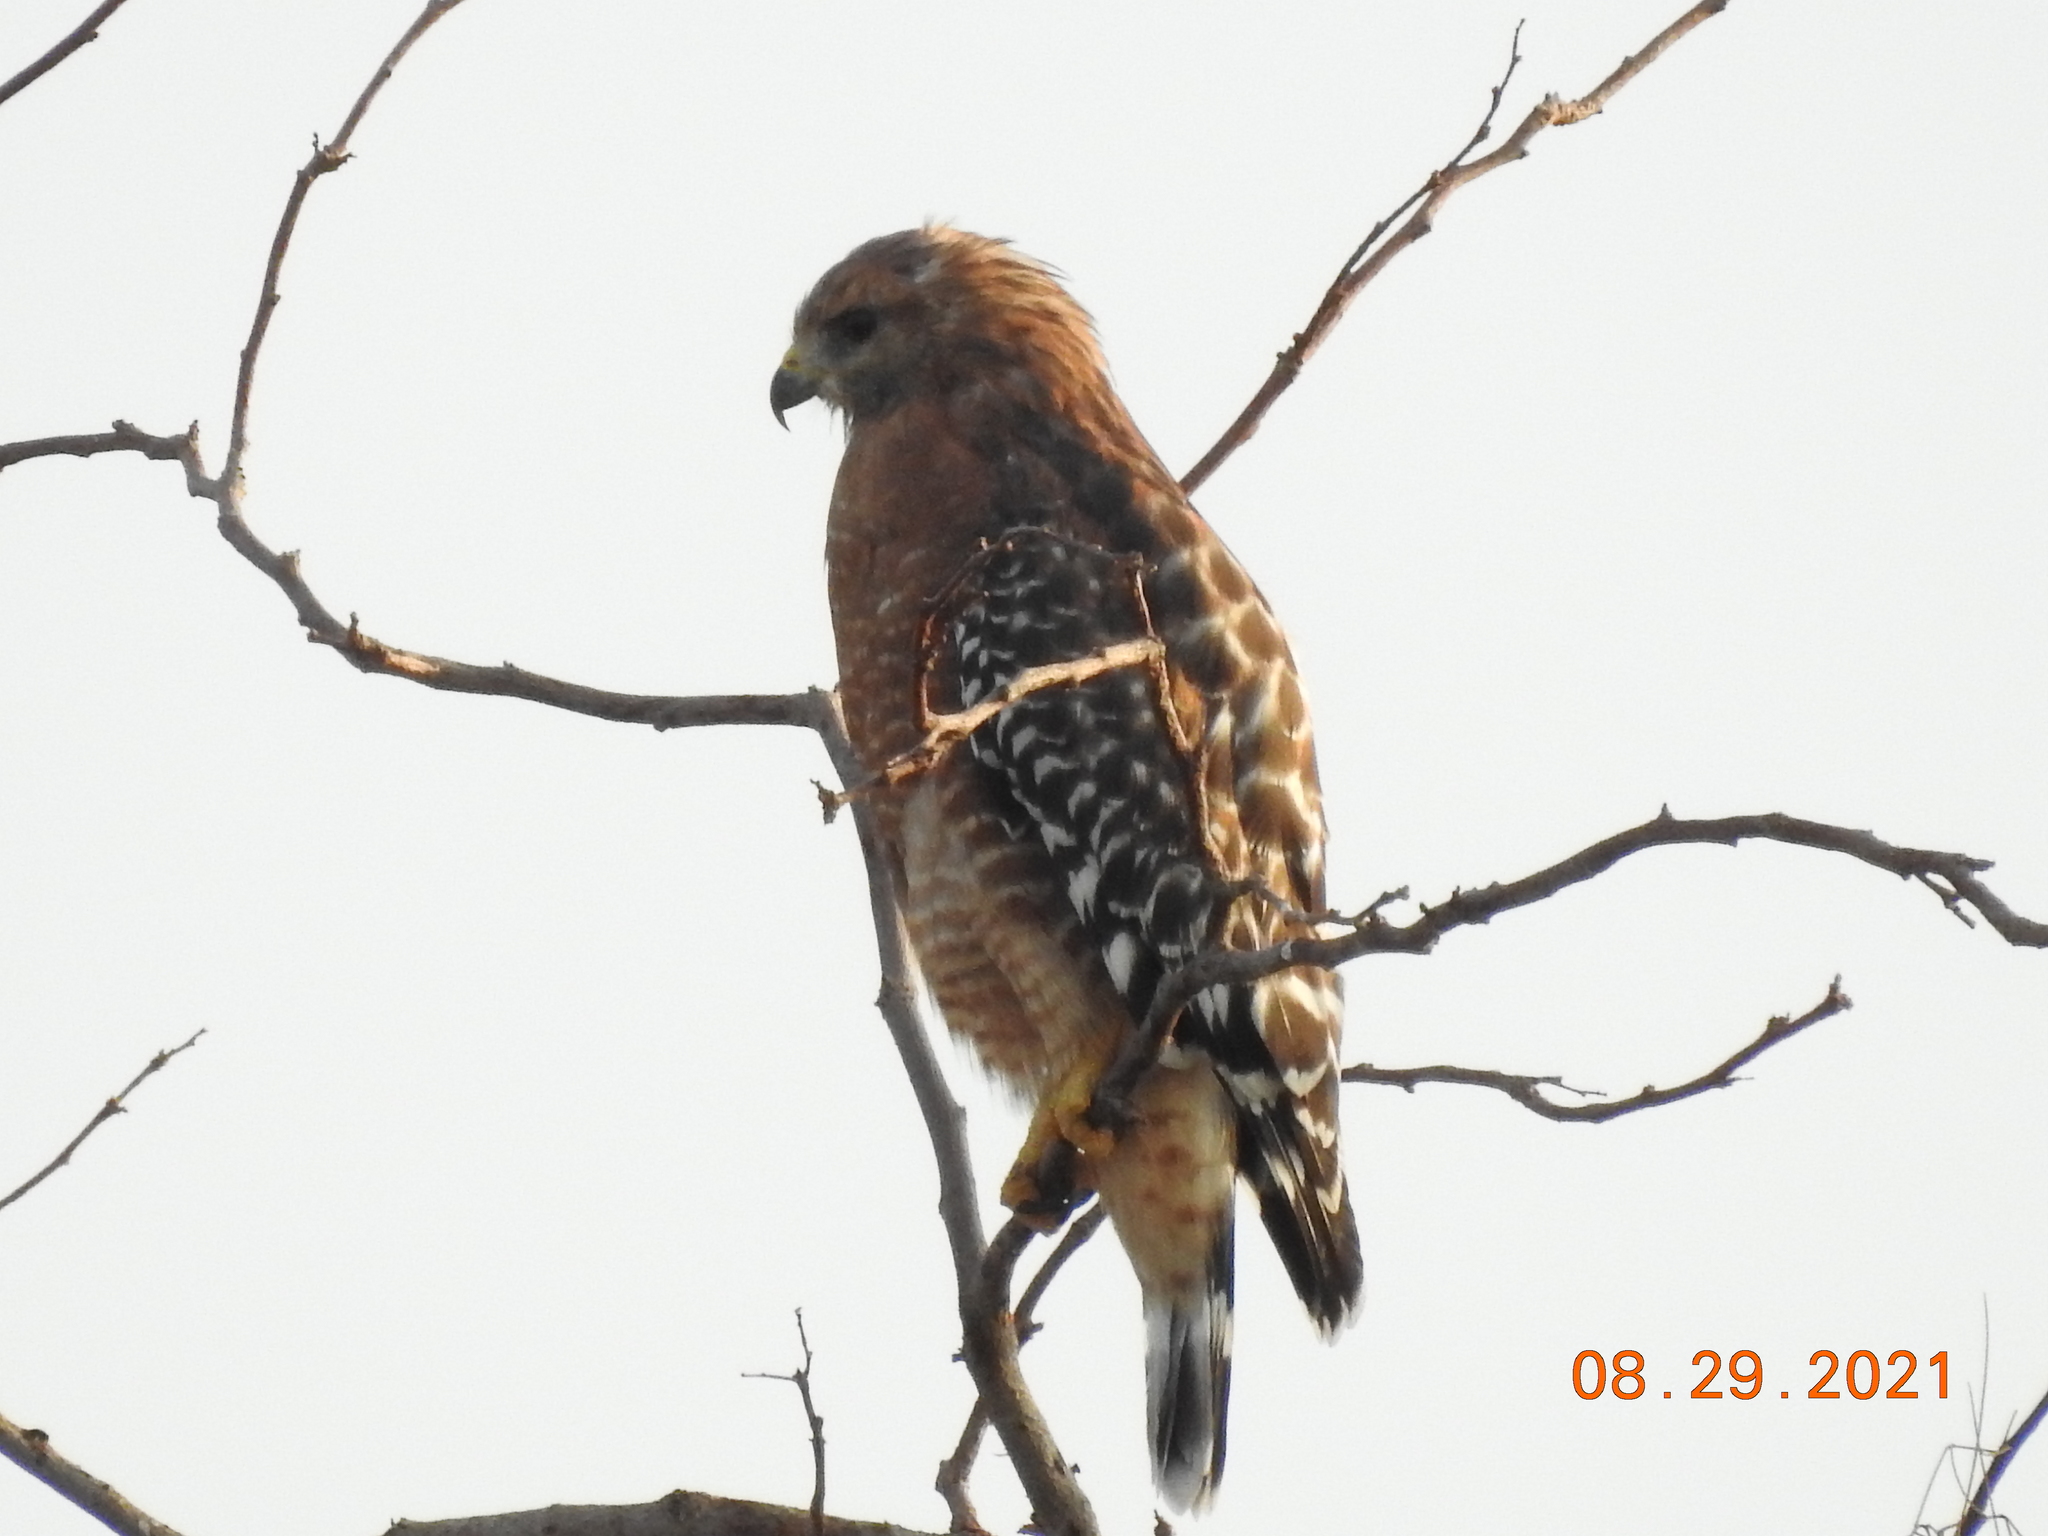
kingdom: Animalia
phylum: Chordata
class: Aves
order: Accipitriformes
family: Accipitridae
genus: Buteo
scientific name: Buteo lineatus
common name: Red-shouldered hawk
